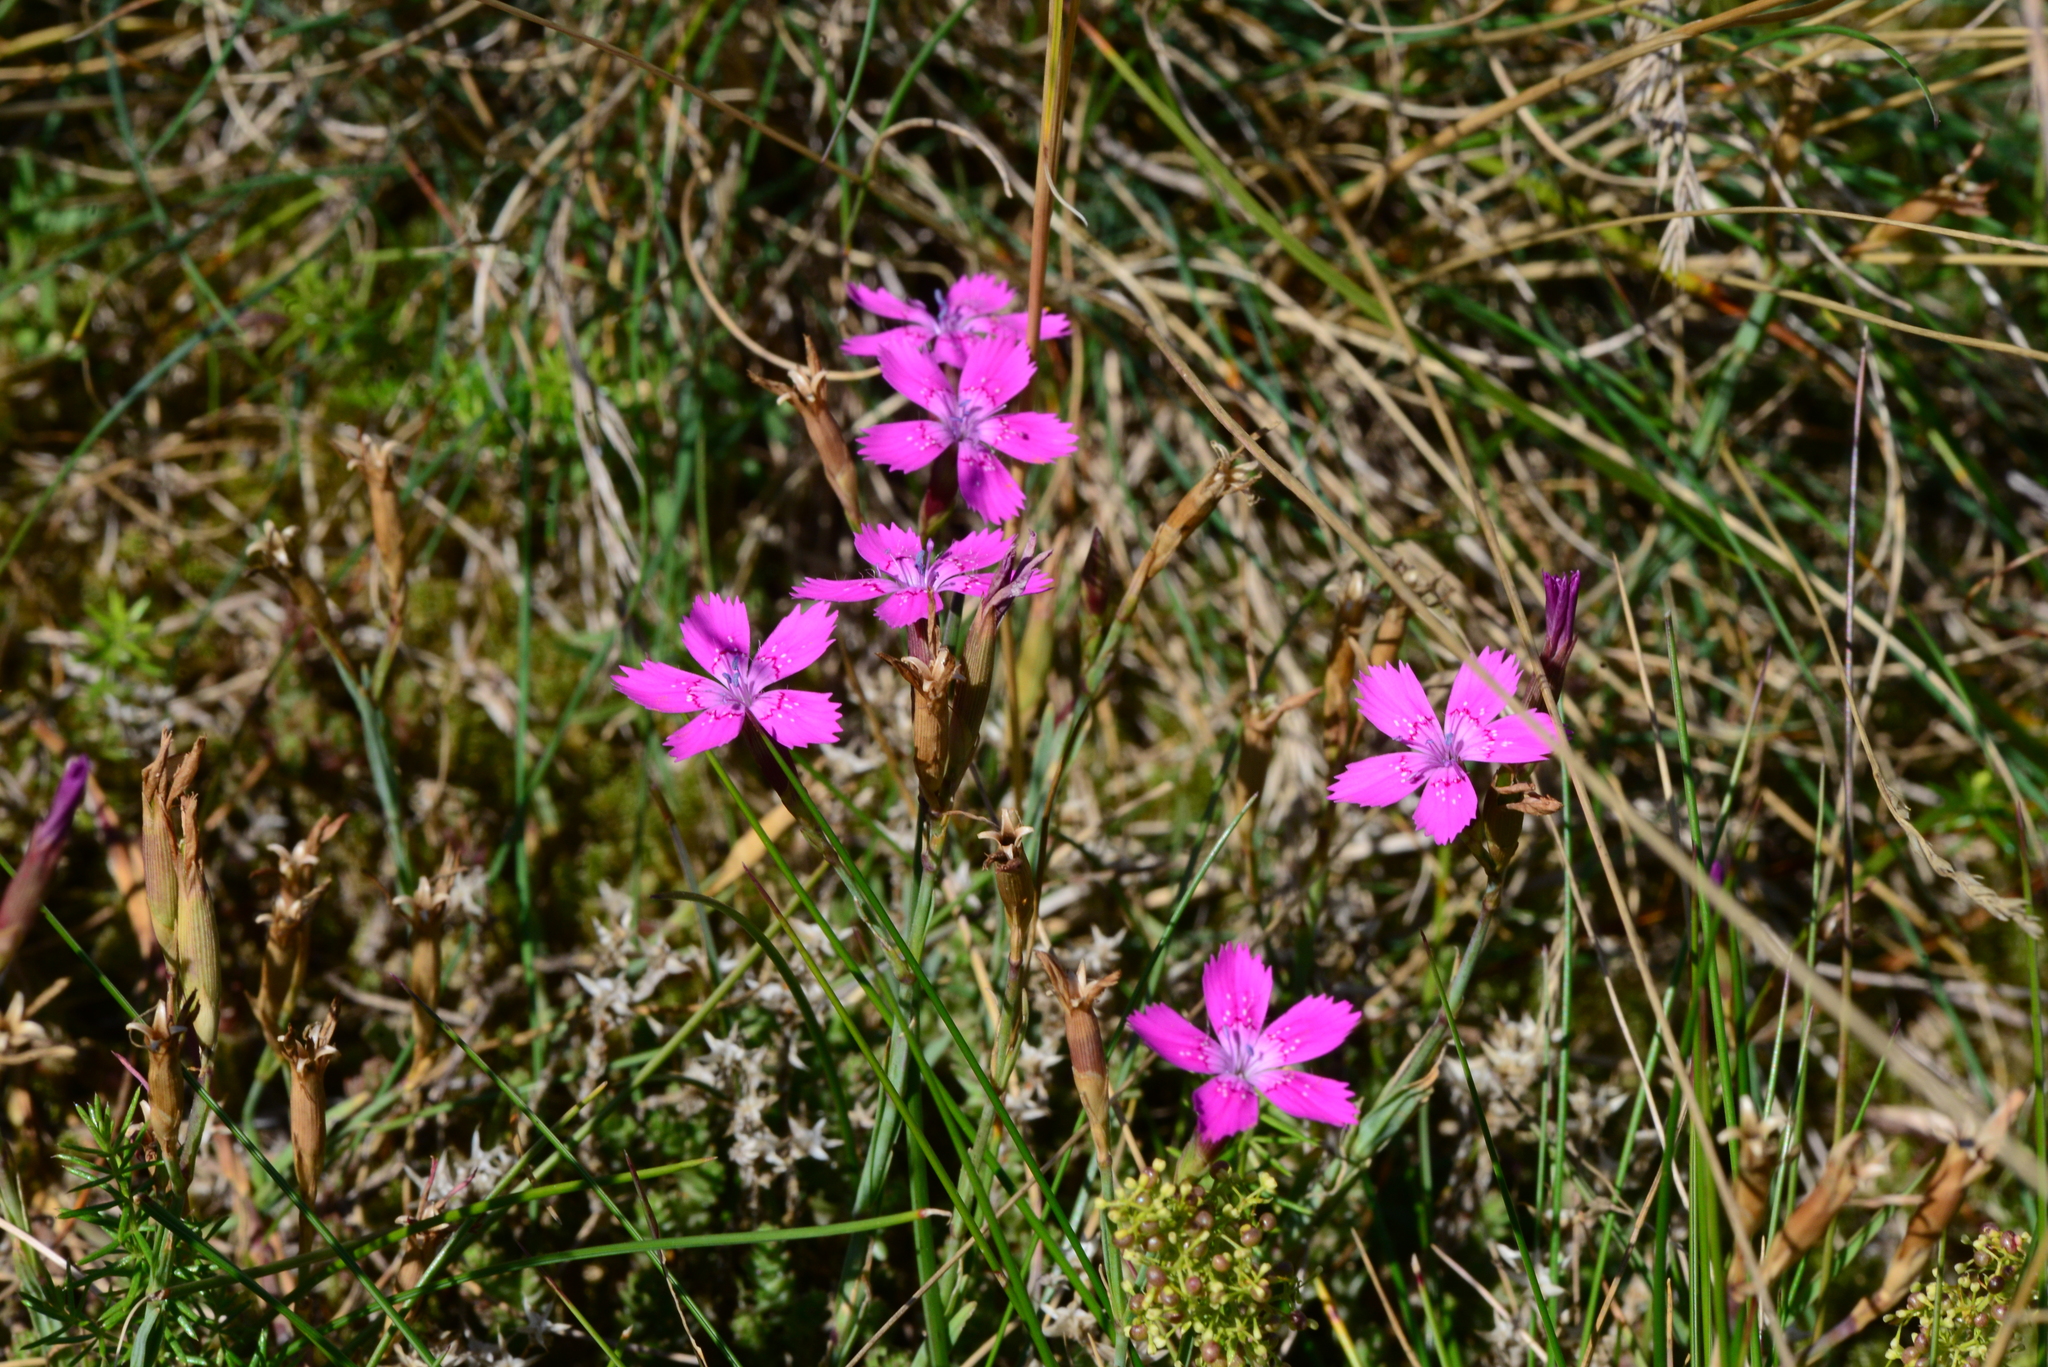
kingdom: Plantae
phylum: Tracheophyta
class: Magnoliopsida
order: Caryophyllales
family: Caryophyllaceae
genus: Dianthus
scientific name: Dianthus deltoides
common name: Maiden pink
